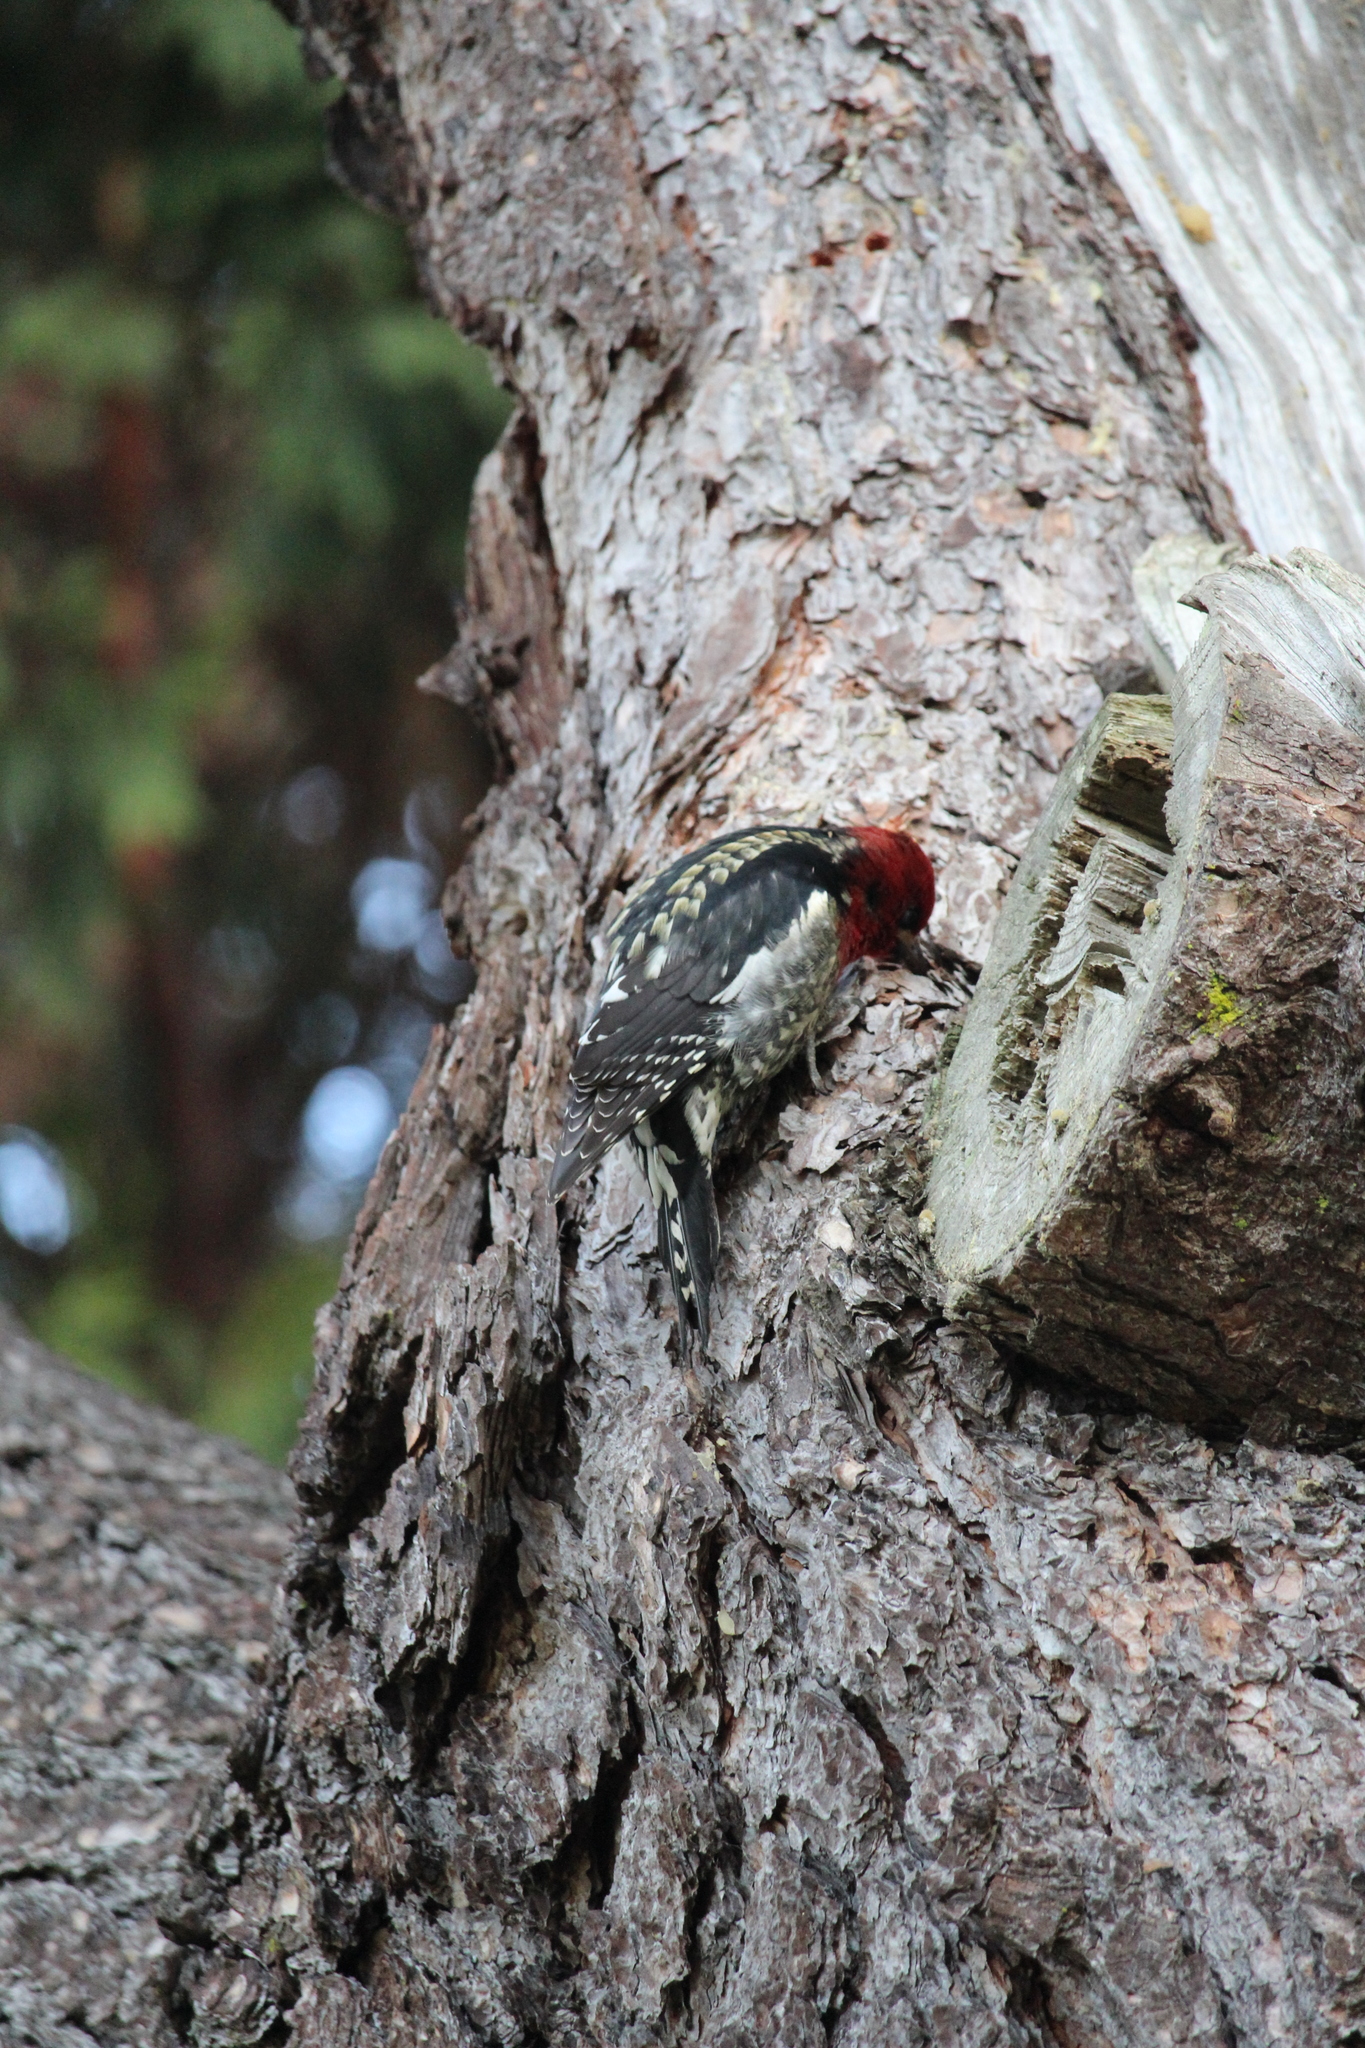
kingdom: Animalia
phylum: Chordata
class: Aves
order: Piciformes
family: Picidae
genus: Sphyrapicus
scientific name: Sphyrapicus ruber
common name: Red-breasted sapsucker
